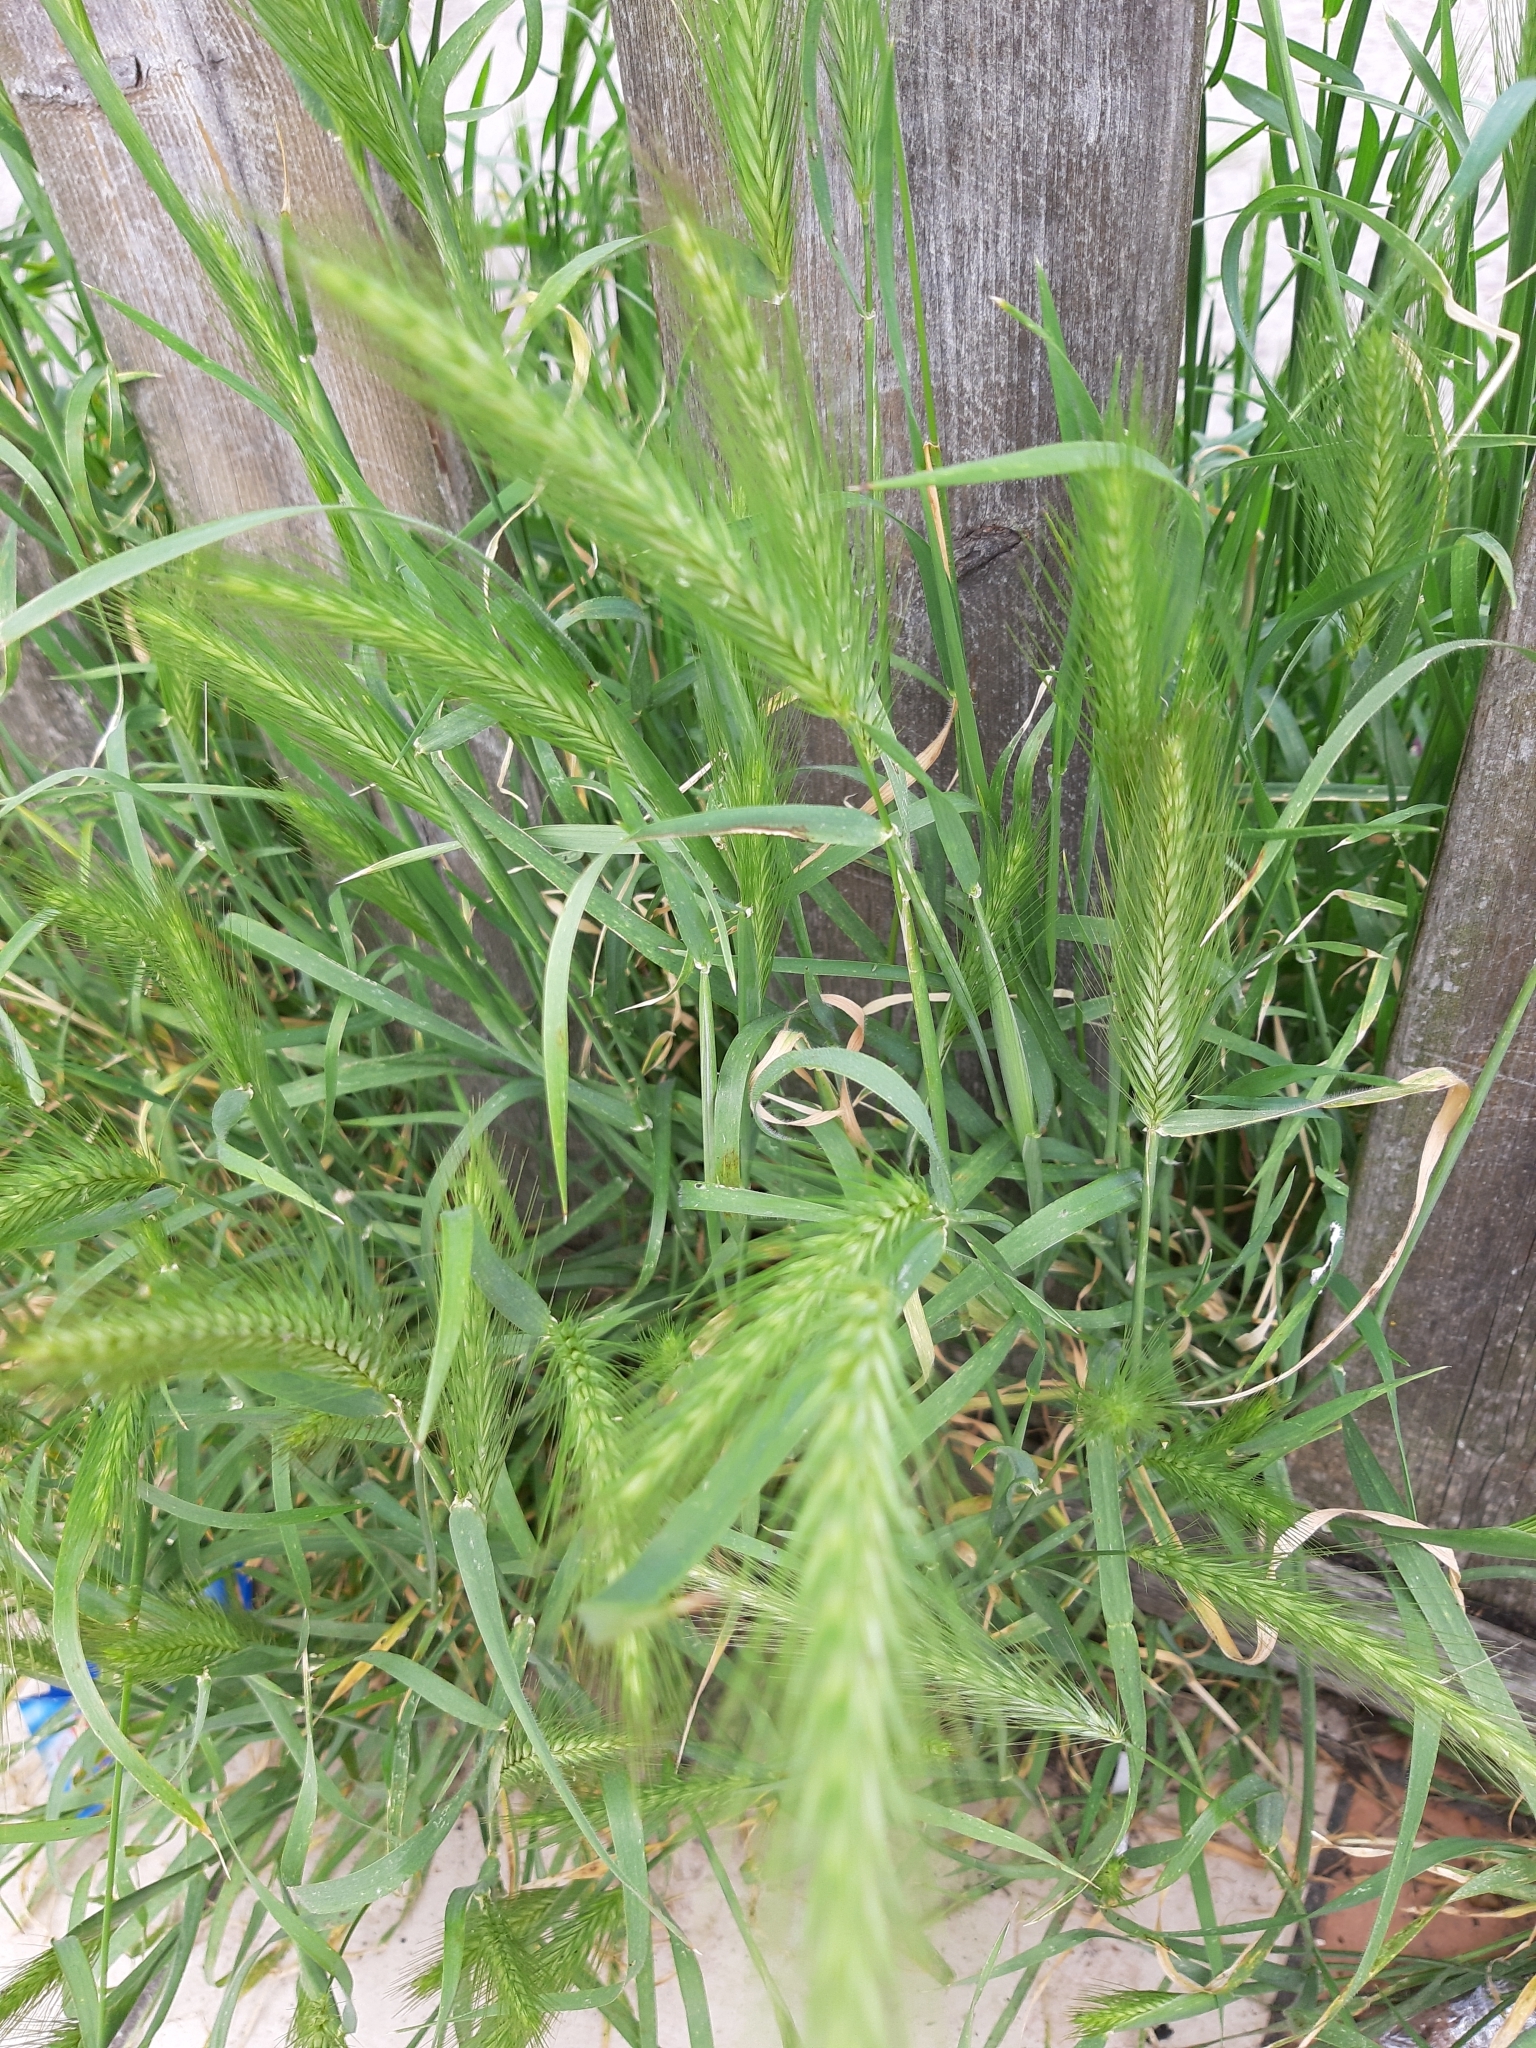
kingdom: Plantae
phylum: Tracheophyta
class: Liliopsida
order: Poales
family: Poaceae
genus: Hordeum
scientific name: Hordeum murinum
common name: Wall barley
